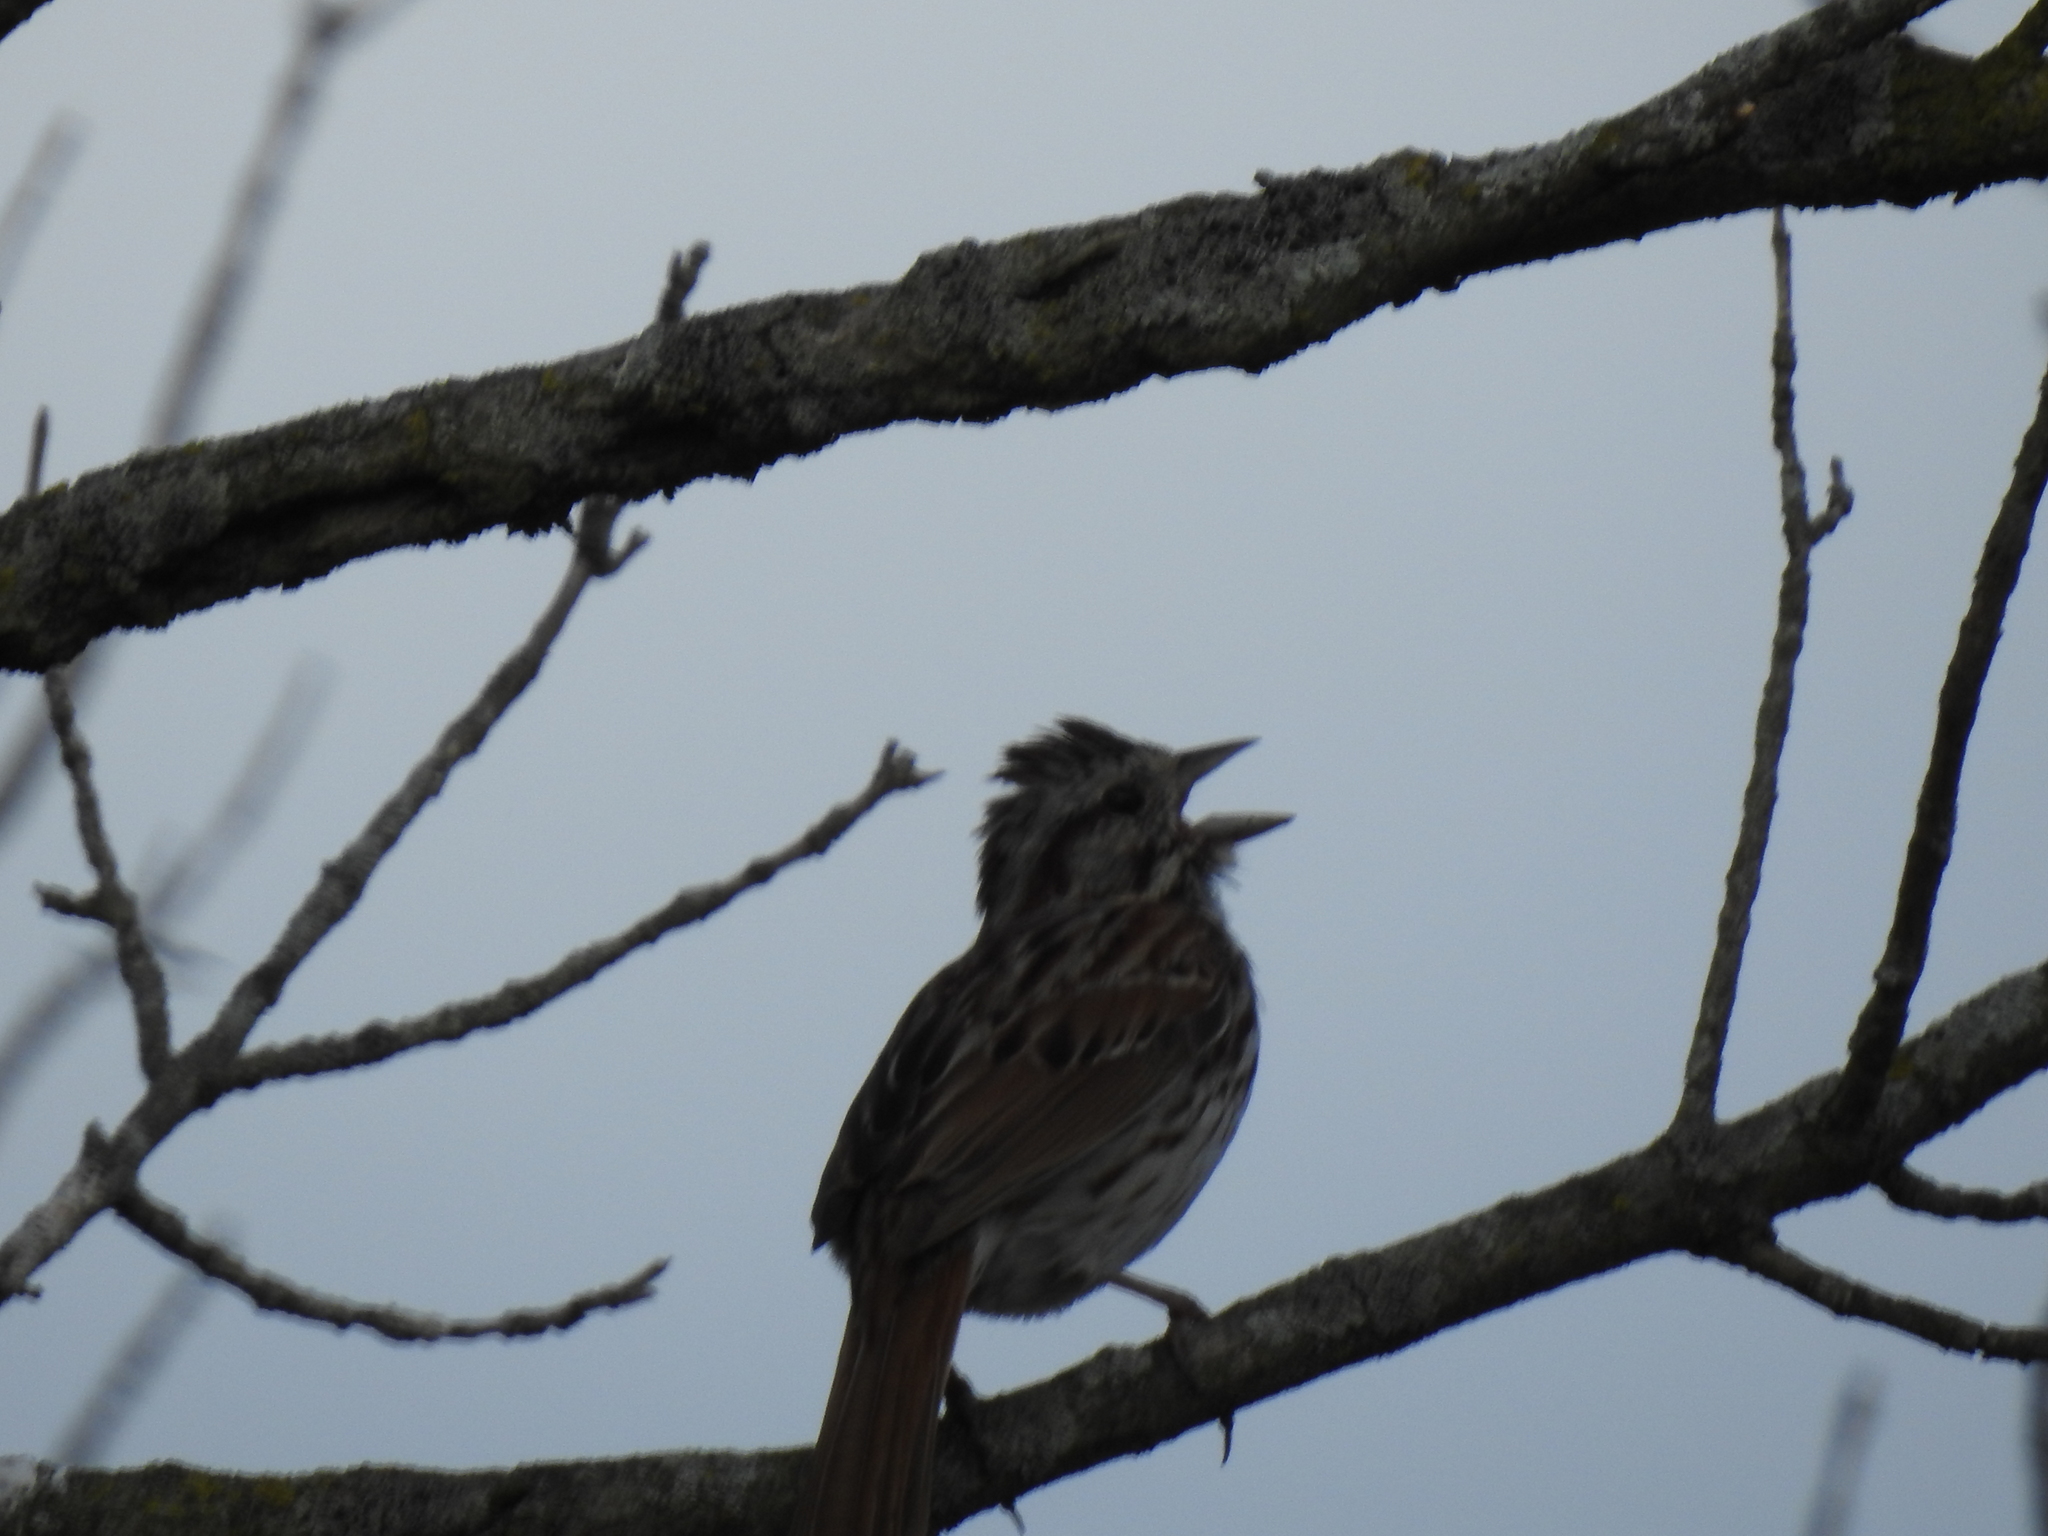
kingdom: Animalia
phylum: Chordata
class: Aves
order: Passeriformes
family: Passerellidae
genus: Melospiza
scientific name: Melospiza melodia
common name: Song sparrow
